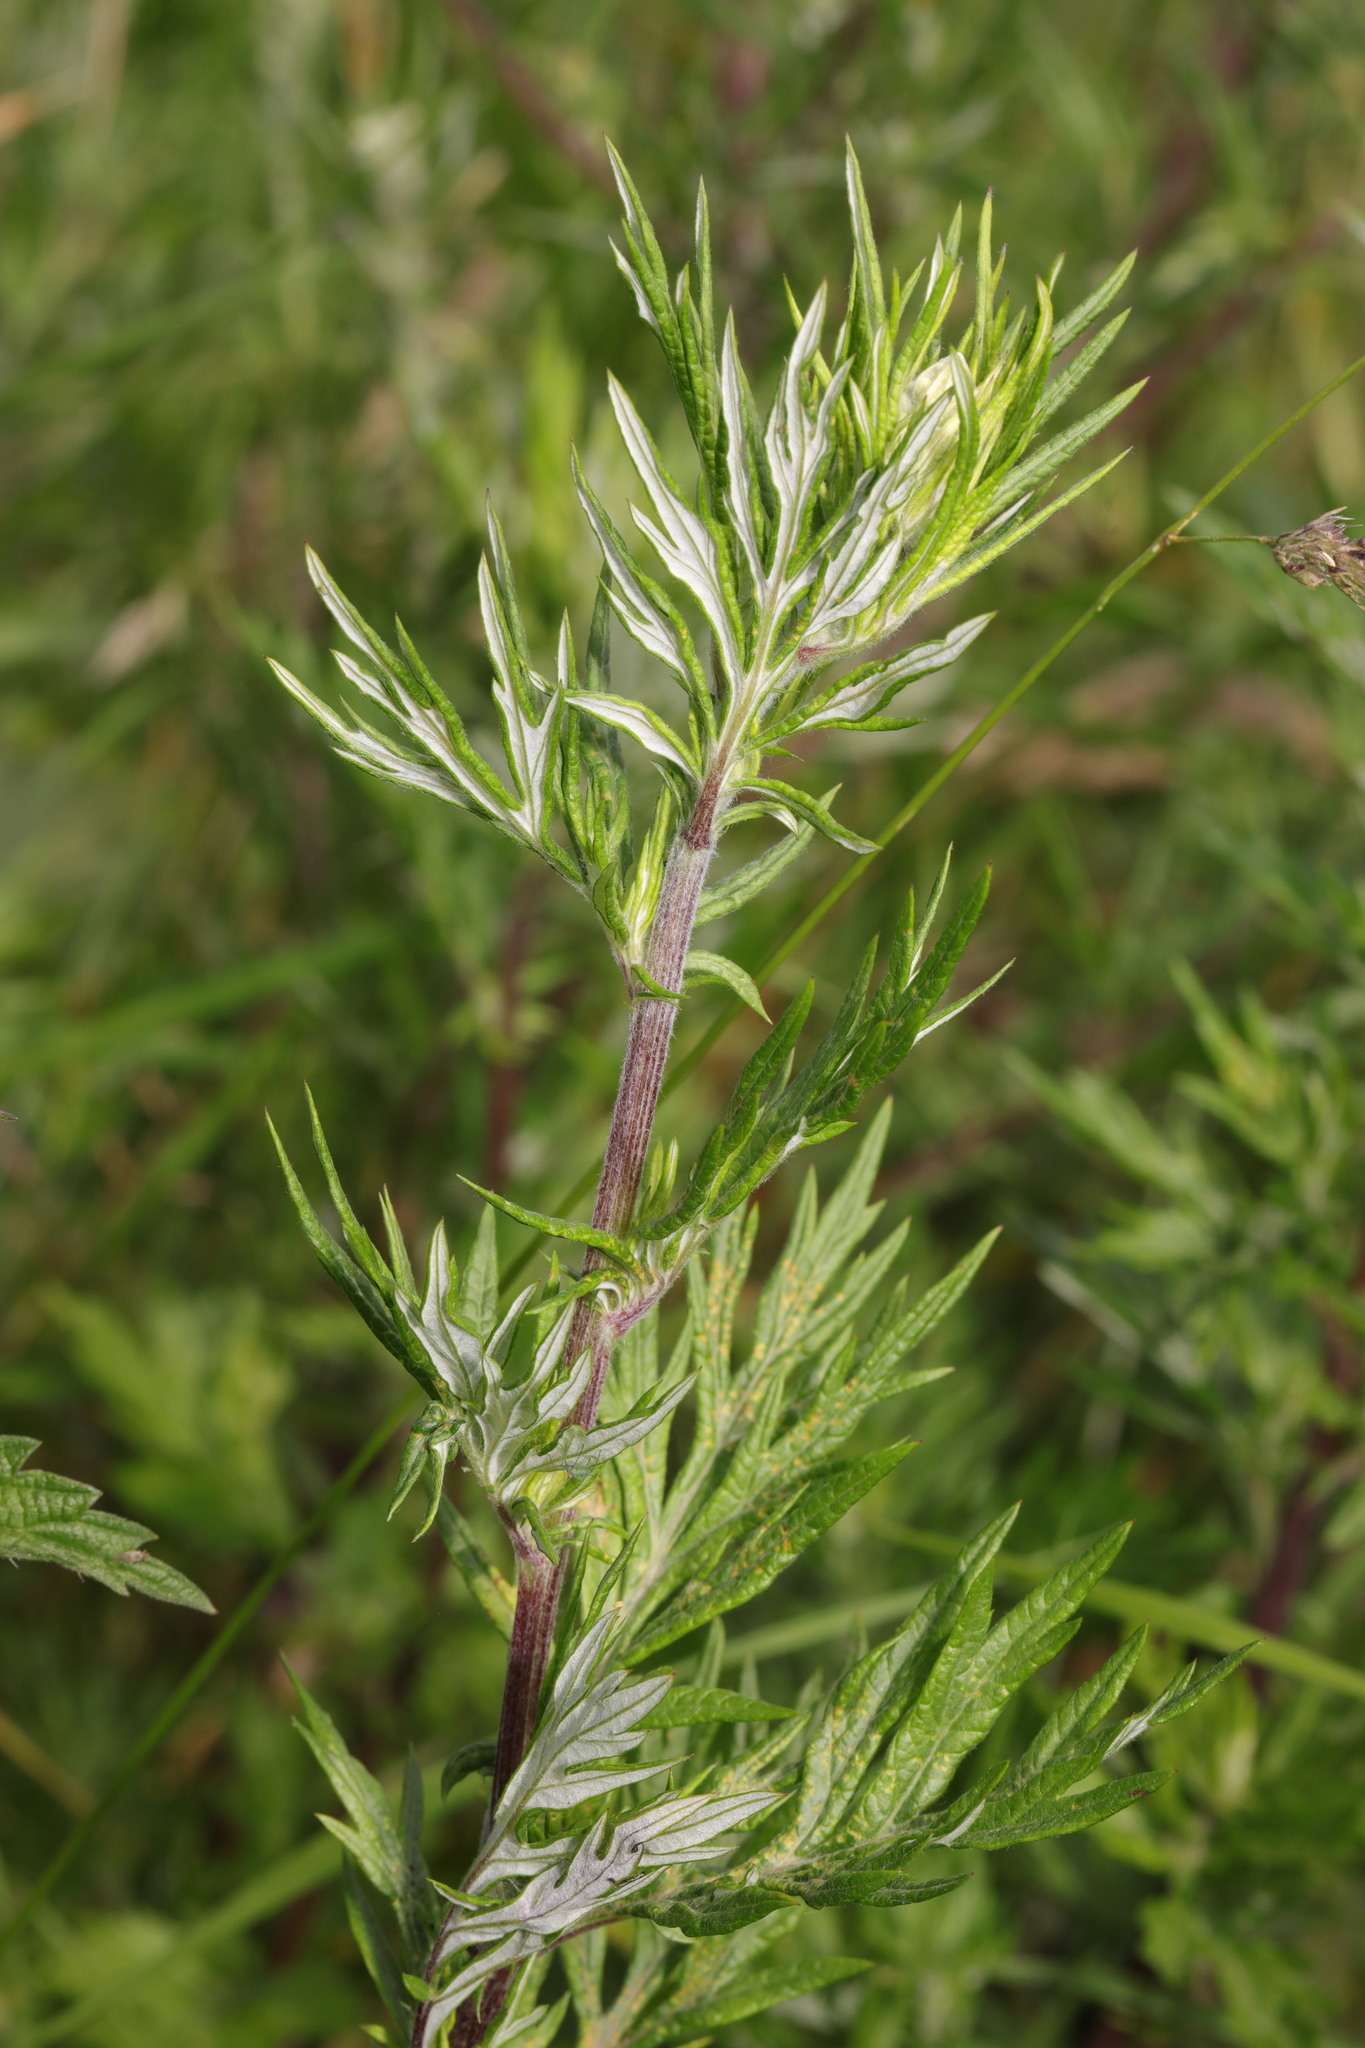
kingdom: Plantae
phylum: Tracheophyta
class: Magnoliopsida
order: Asterales
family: Asteraceae
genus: Artemisia
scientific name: Artemisia vulgaris
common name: Mugwort
